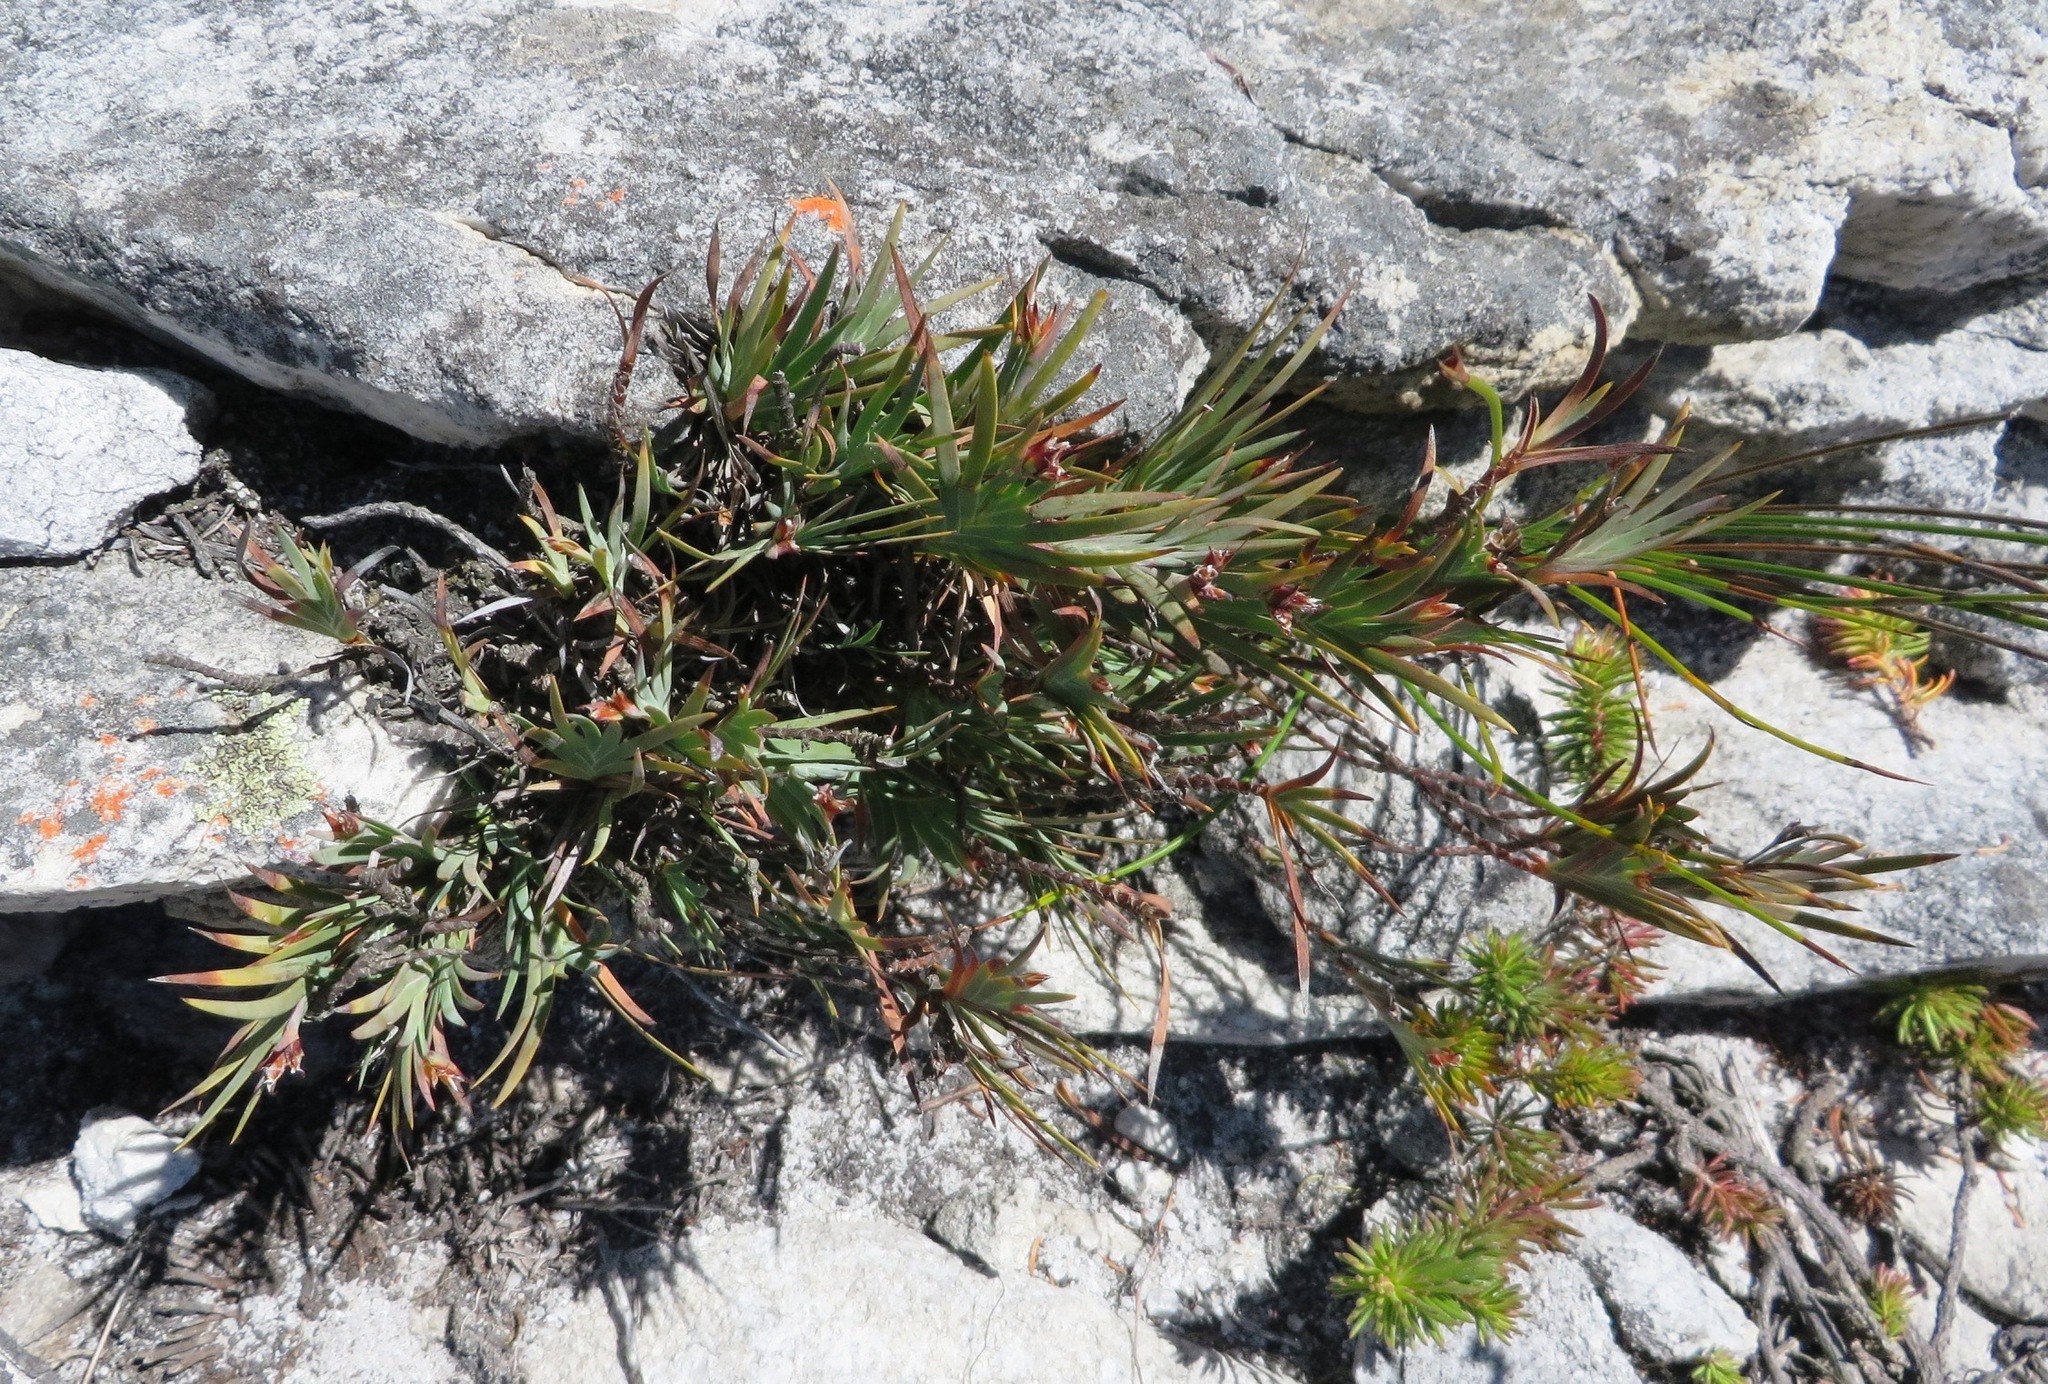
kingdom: Plantae
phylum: Tracheophyta
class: Liliopsida
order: Asparagales
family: Iridaceae
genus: Nivenia
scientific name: Nivenia levynsiae
